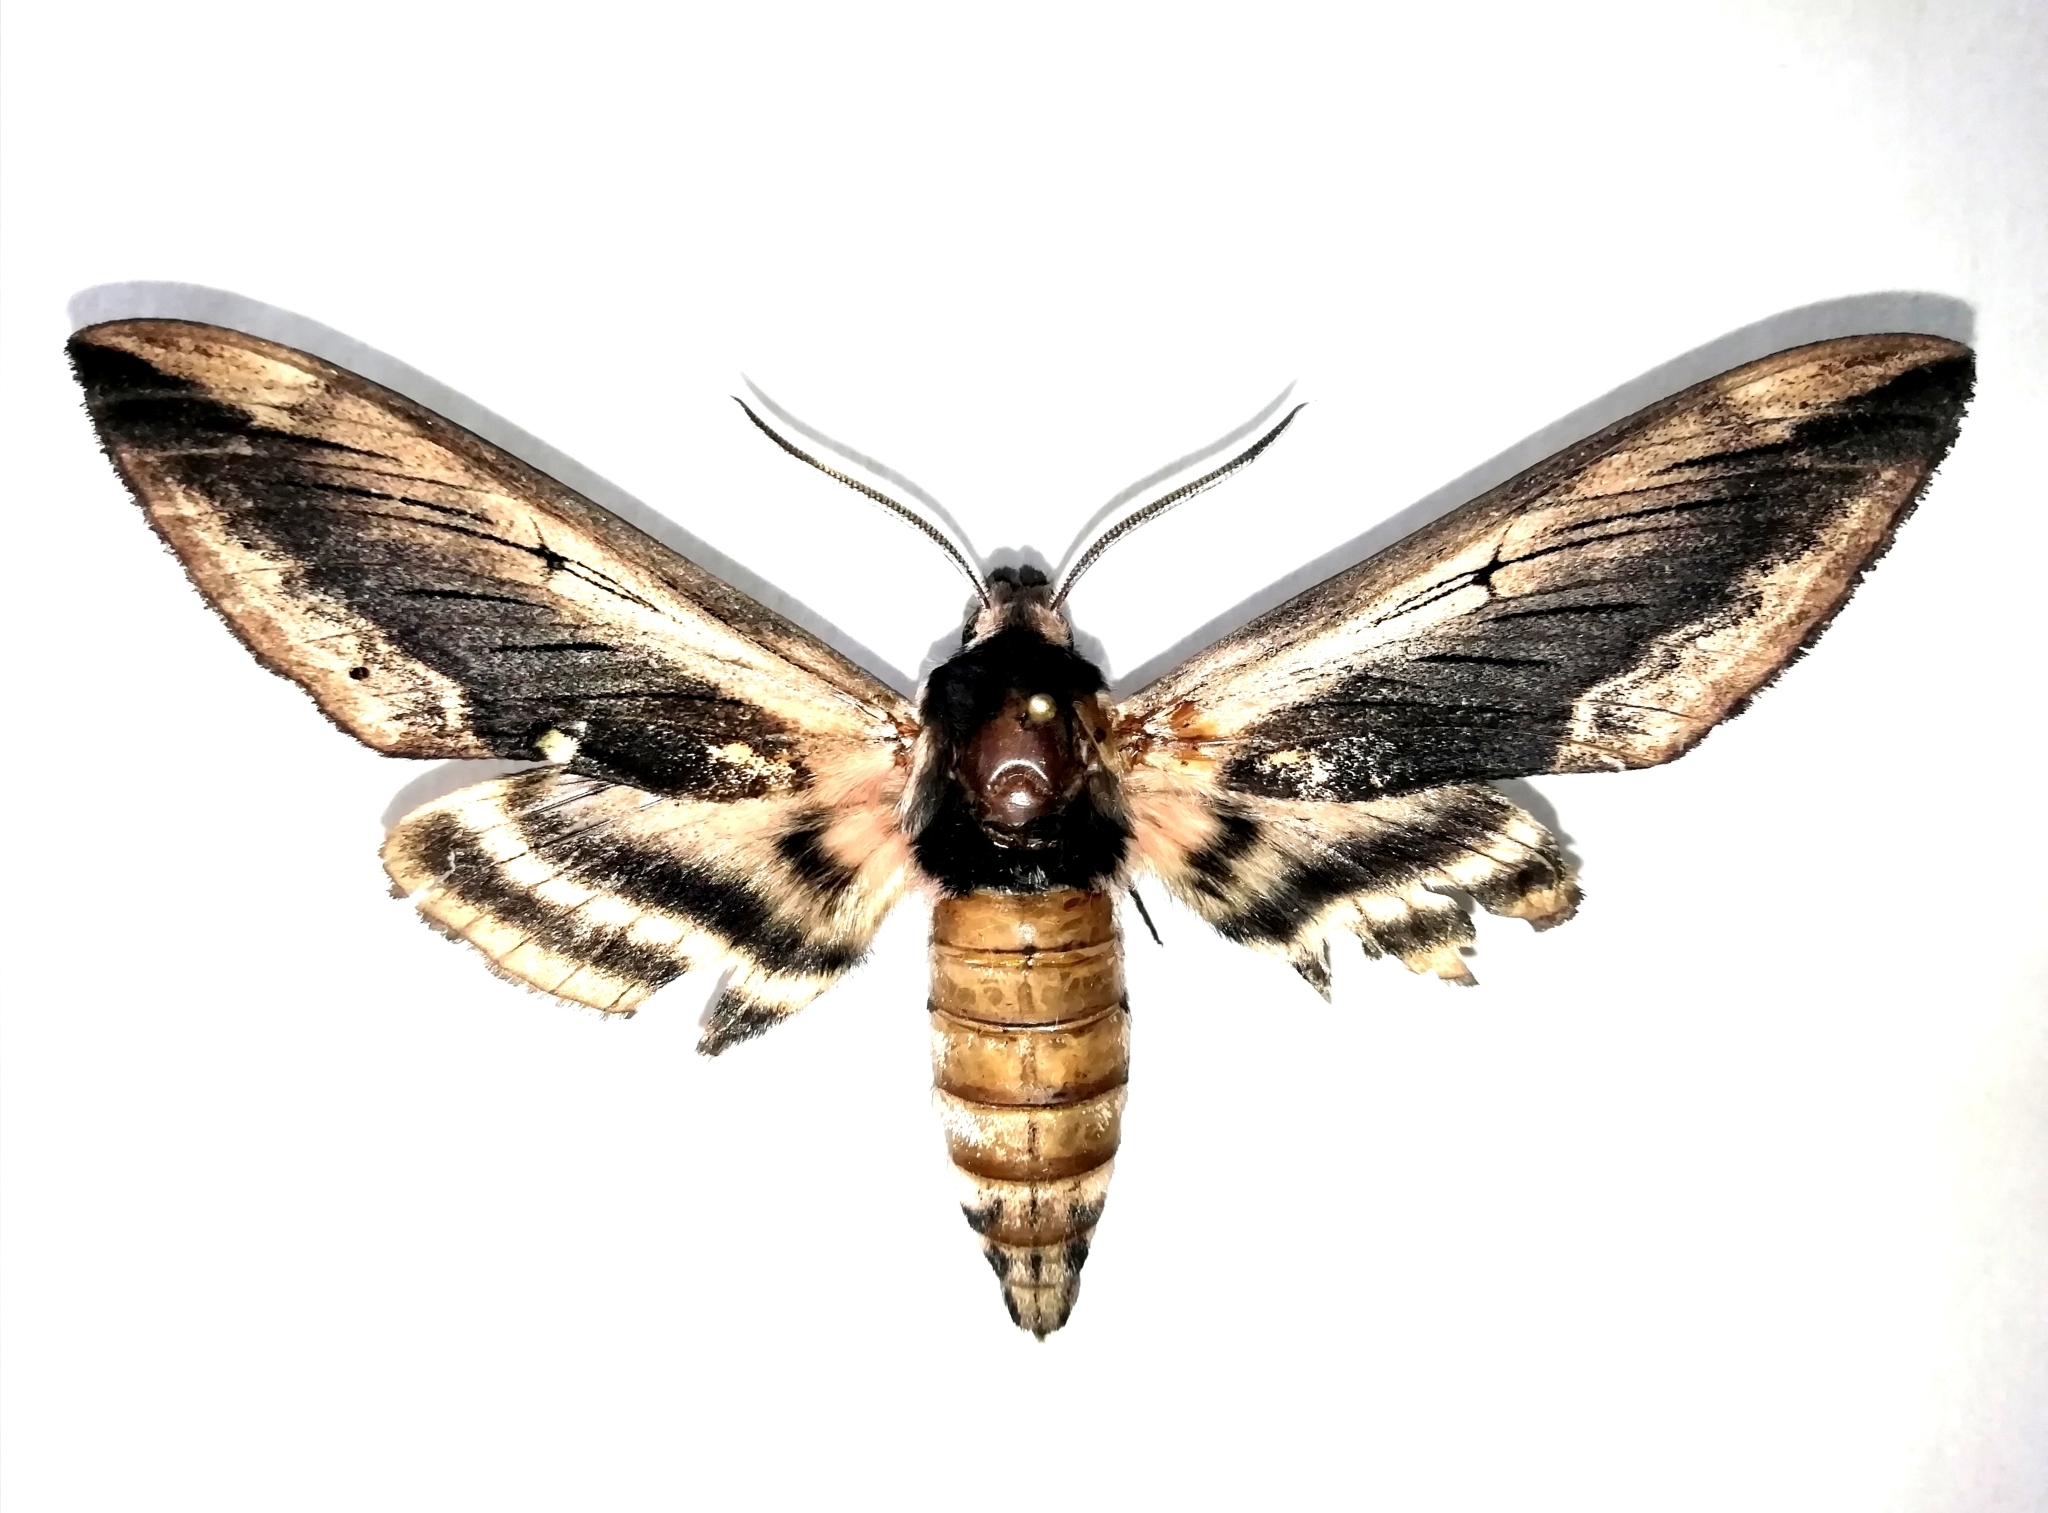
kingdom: Animalia
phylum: Arthropoda
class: Insecta
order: Lepidoptera
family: Sphingidae
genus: Sphinx
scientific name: Sphinx ligustri
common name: Privet hawk-moth
